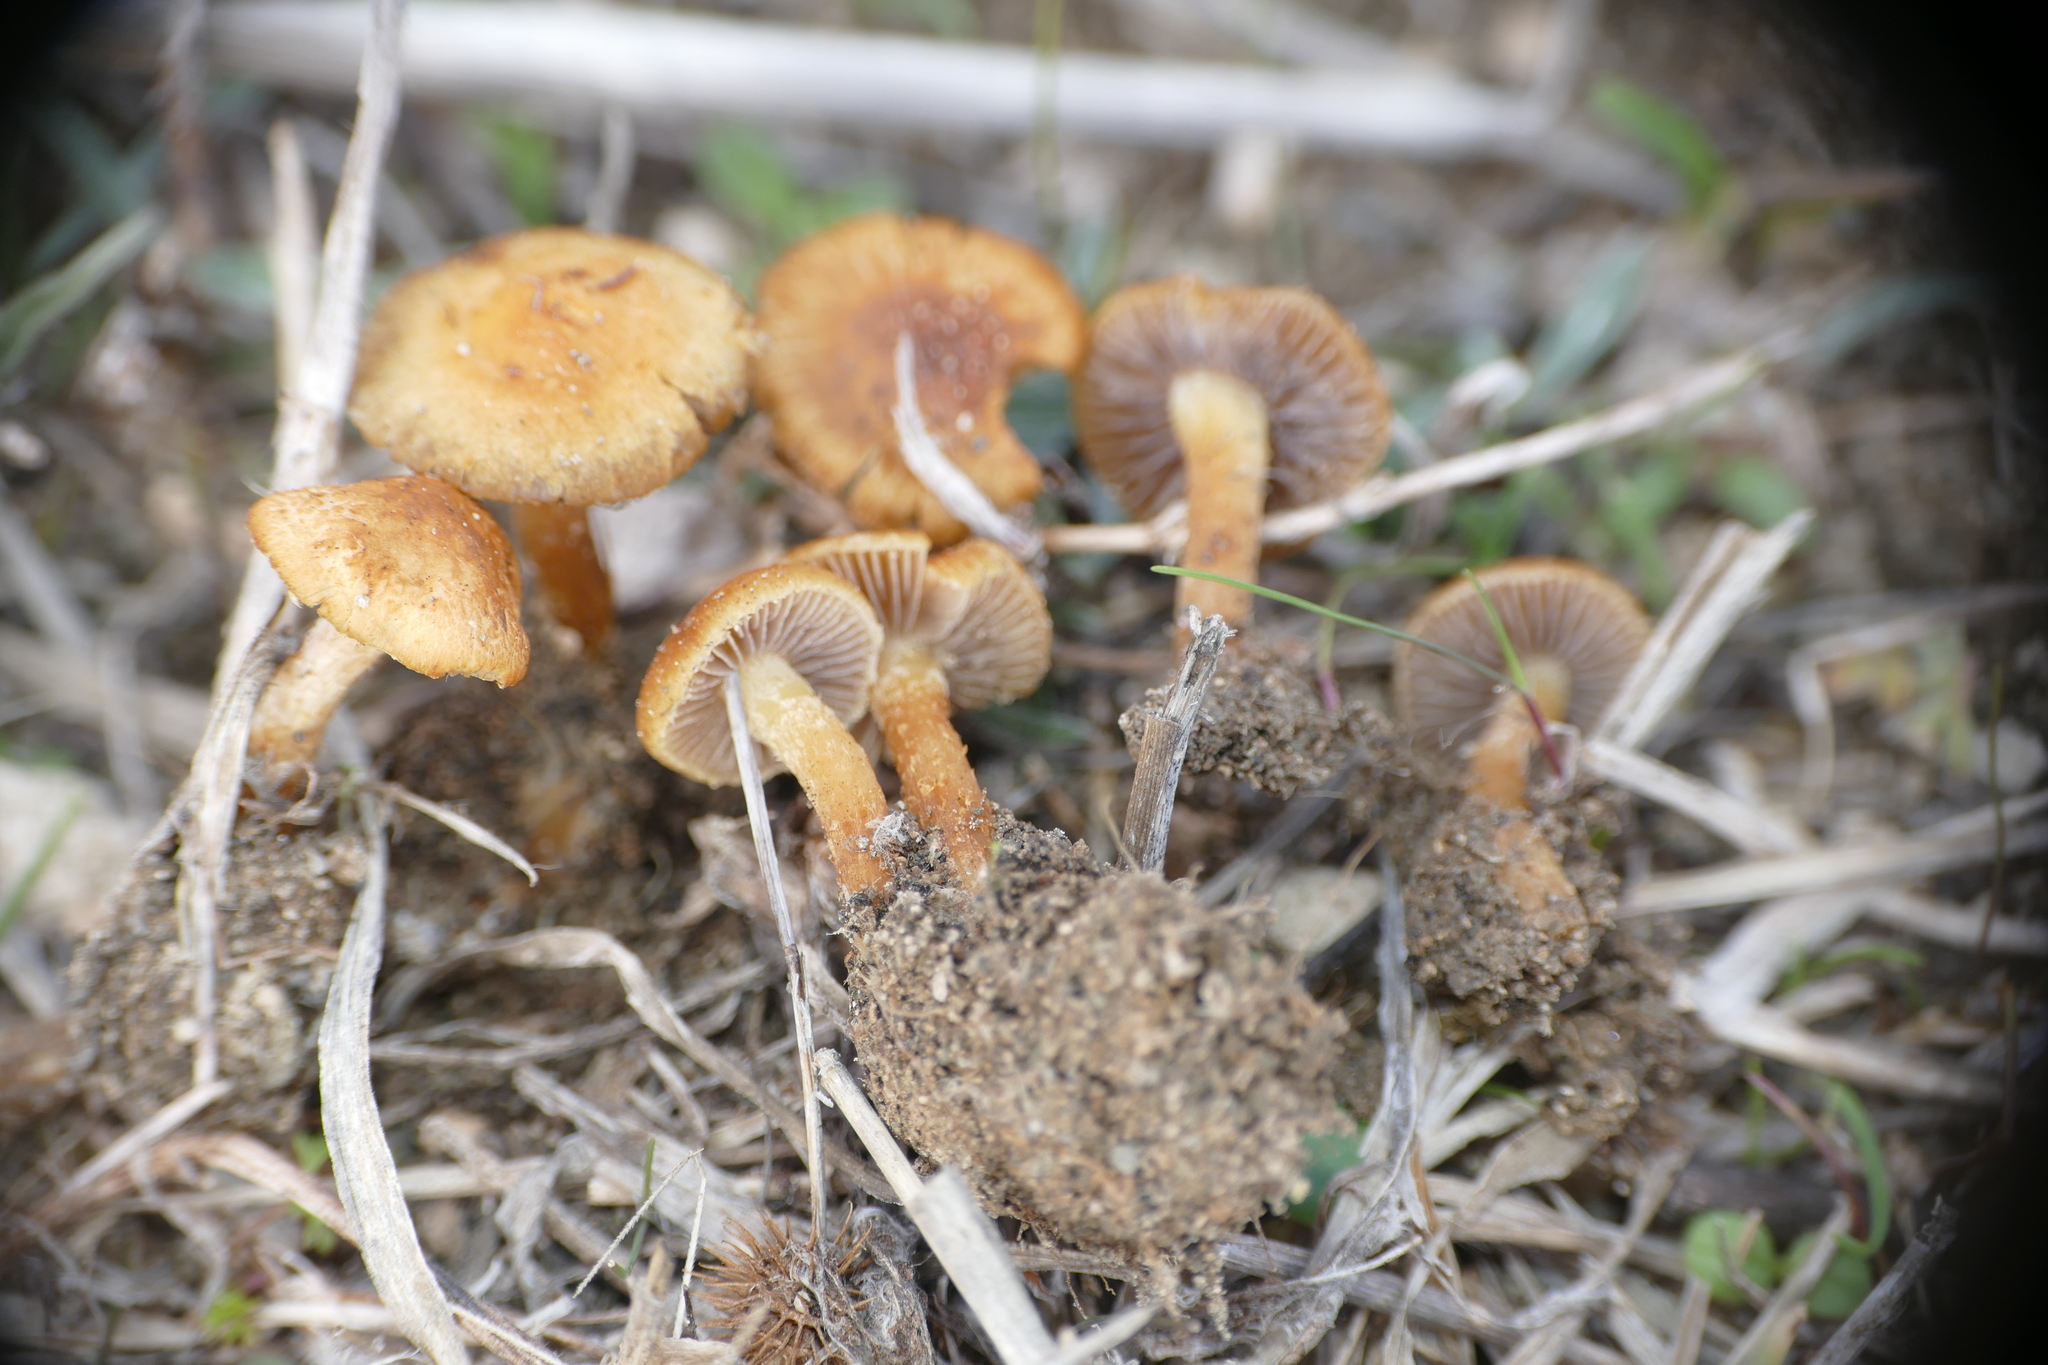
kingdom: Fungi
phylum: Basidiomycota
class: Agaricomycetes
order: Agaricales
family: Strophariaceae
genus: Agrocybe
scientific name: Agrocybe pusiola
